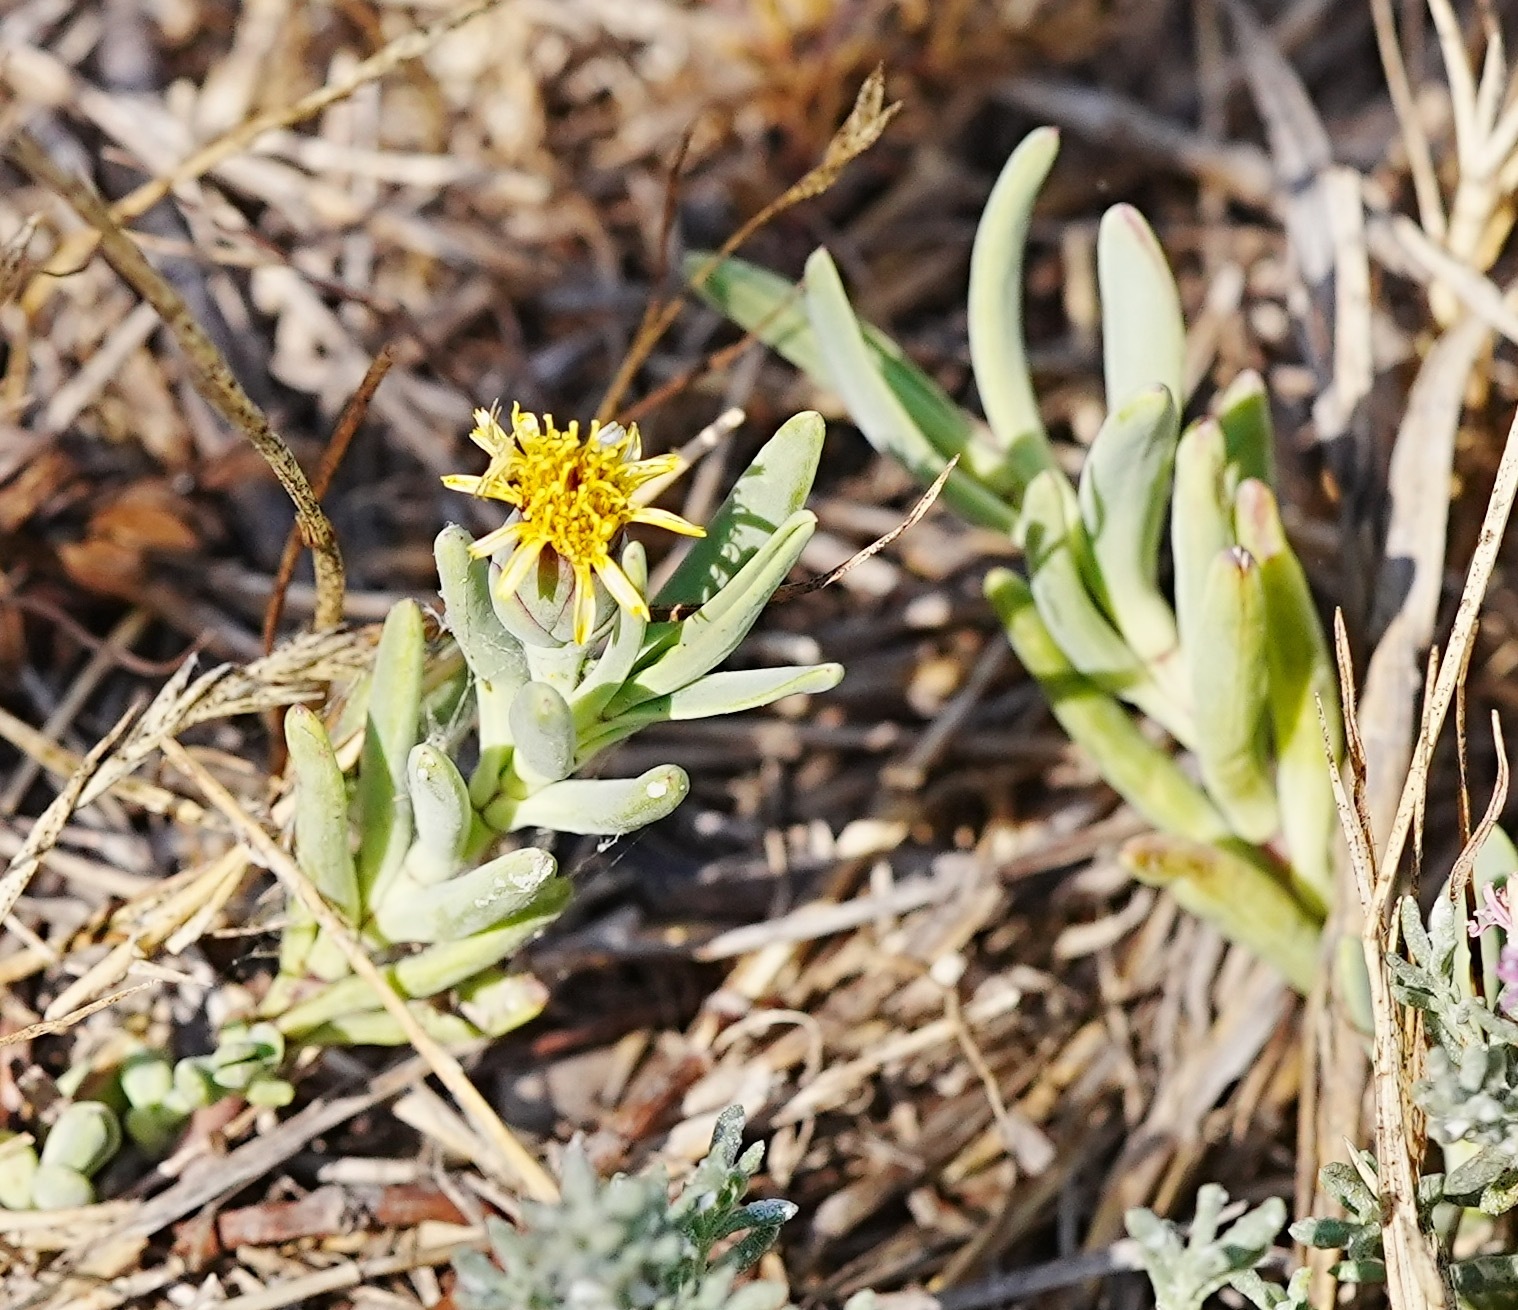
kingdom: Plantae
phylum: Tracheophyta
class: Magnoliopsida
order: Asterales
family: Asteraceae
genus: Jaumea
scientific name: Jaumea carnosa
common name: Fleshy jaumea
